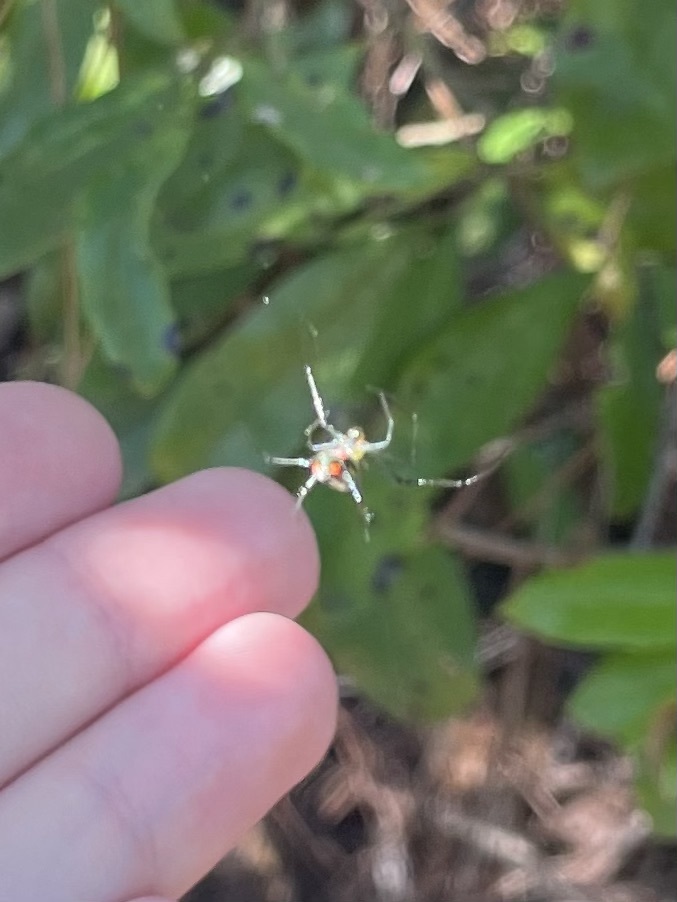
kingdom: Animalia
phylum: Arthropoda
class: Arachnida
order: Araneae
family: Tetragnathidae
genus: Leucauge
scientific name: Leucauge argyrobapta
